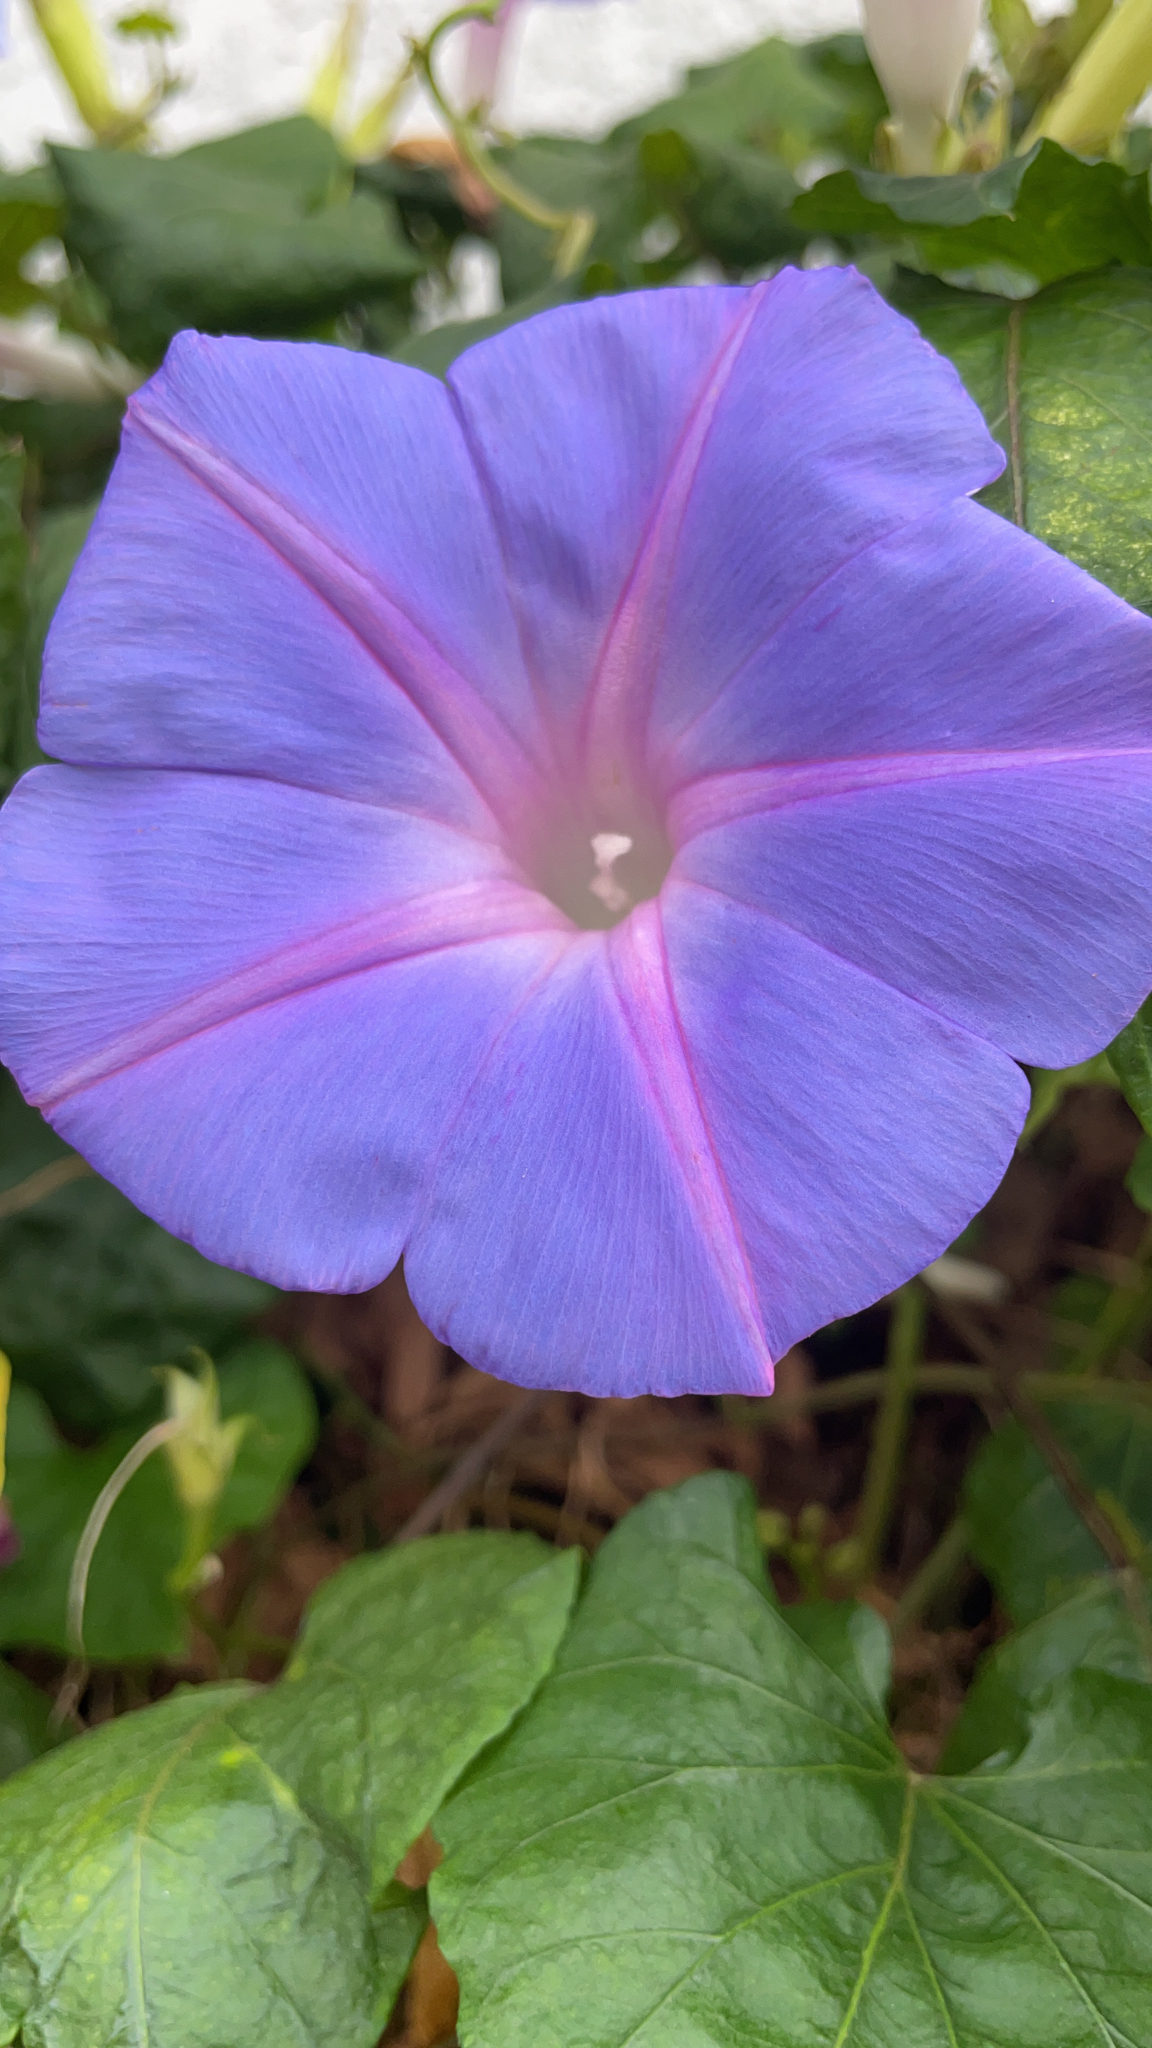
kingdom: Plantae
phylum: Tracheophyta
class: Magnoliopsida
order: Solanales
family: Convolvulaceae
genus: Ipomoea
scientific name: Ipomoea indica
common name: Blue dawnflower
